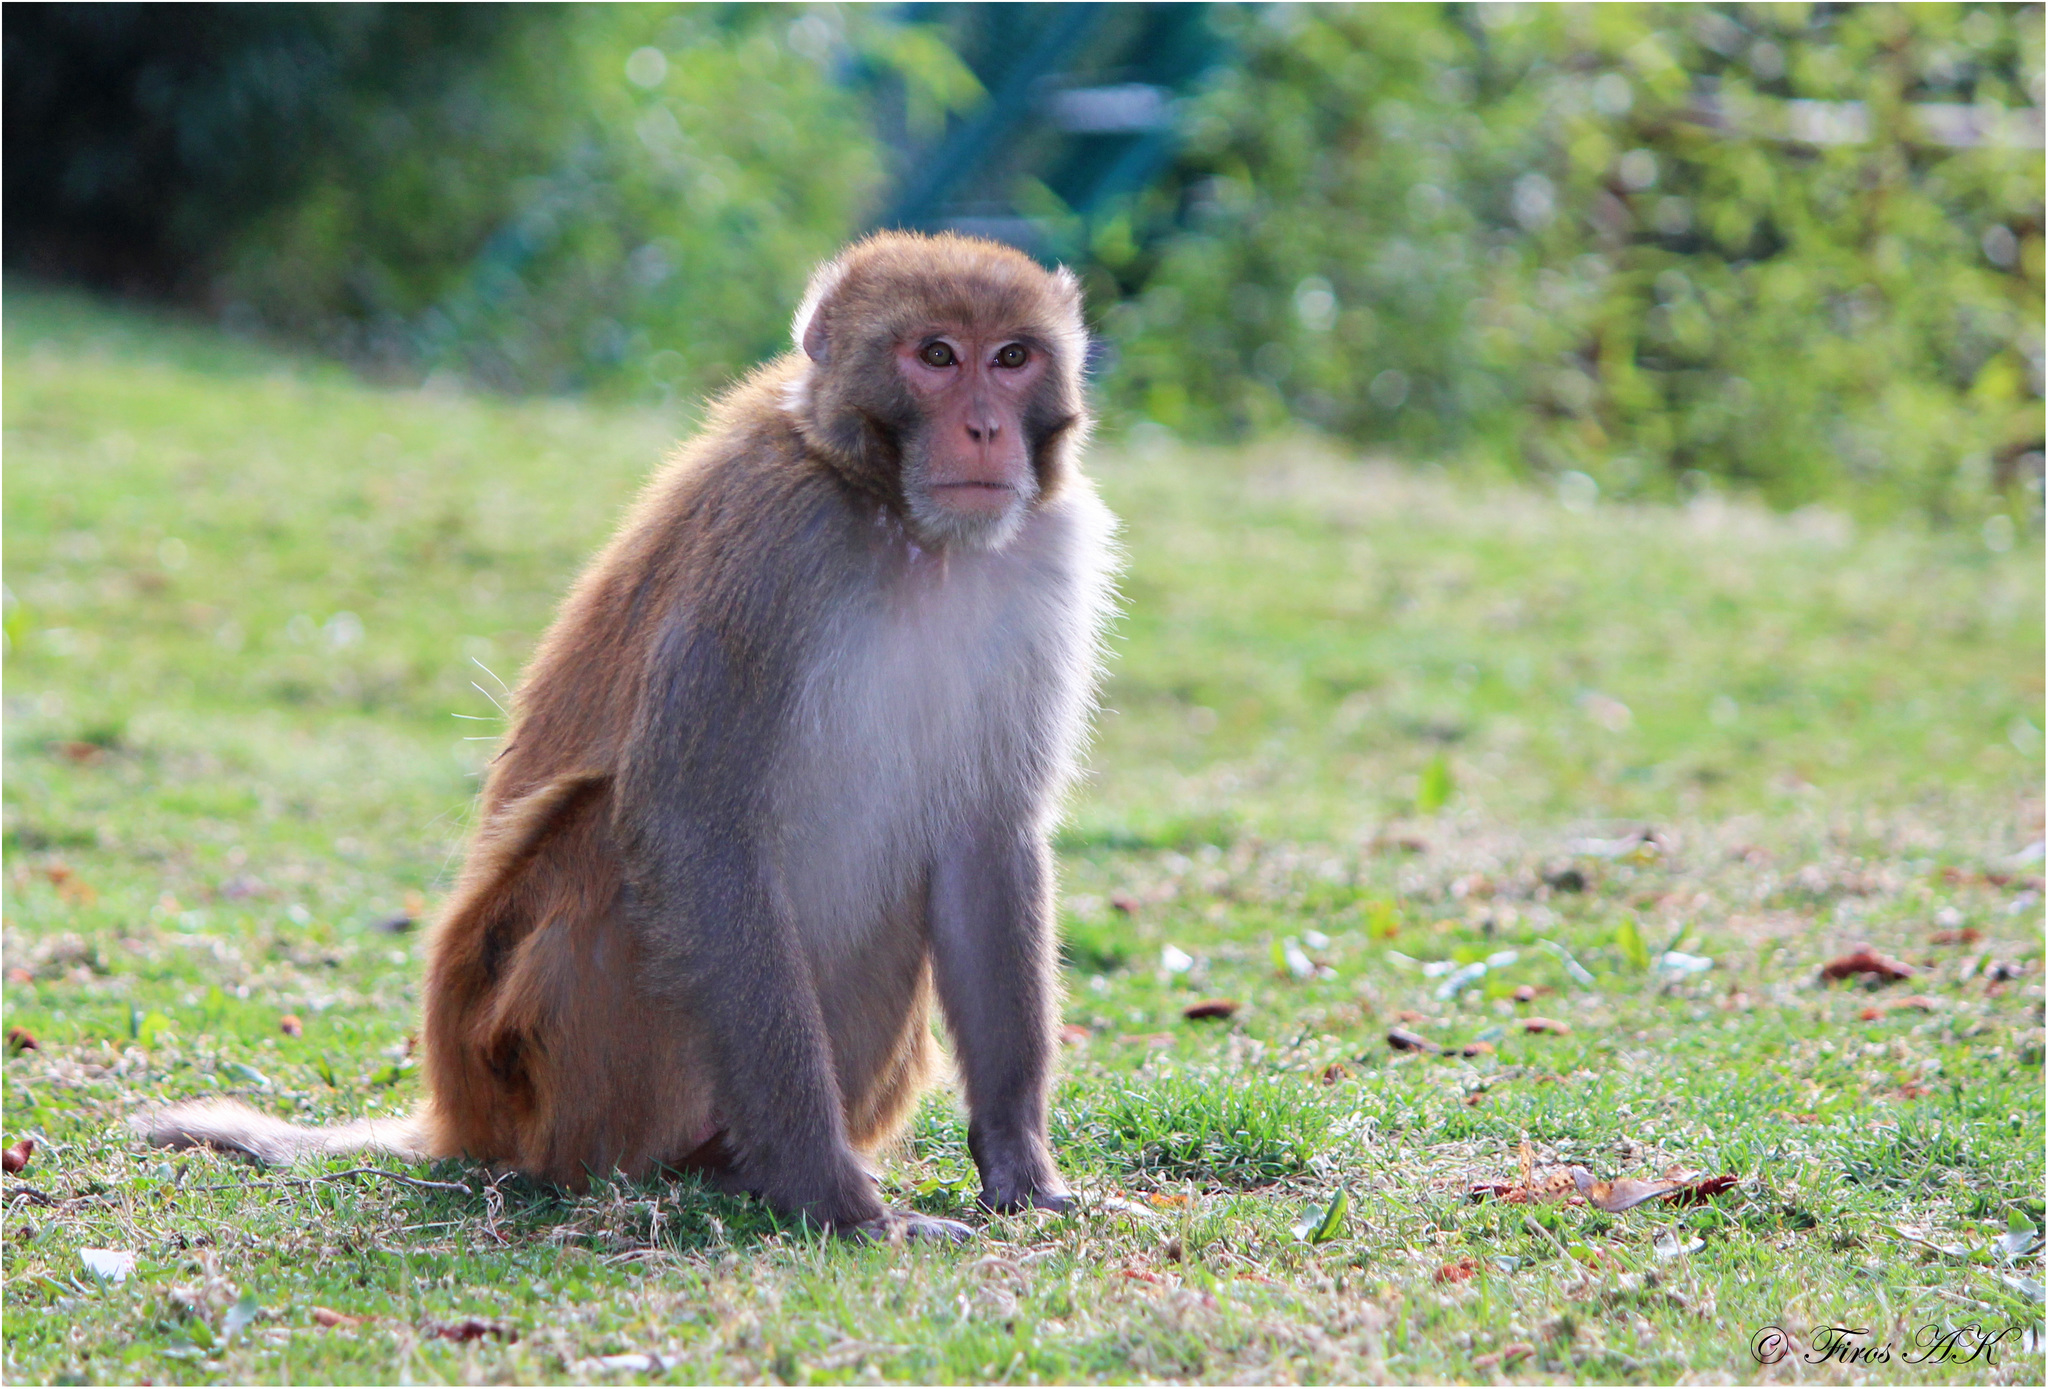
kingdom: Animalia
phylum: Chordata
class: Mammalia
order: Primates
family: Cercopithecidae
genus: Macaca
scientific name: Macaca mulatta
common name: Rhesus monkey
